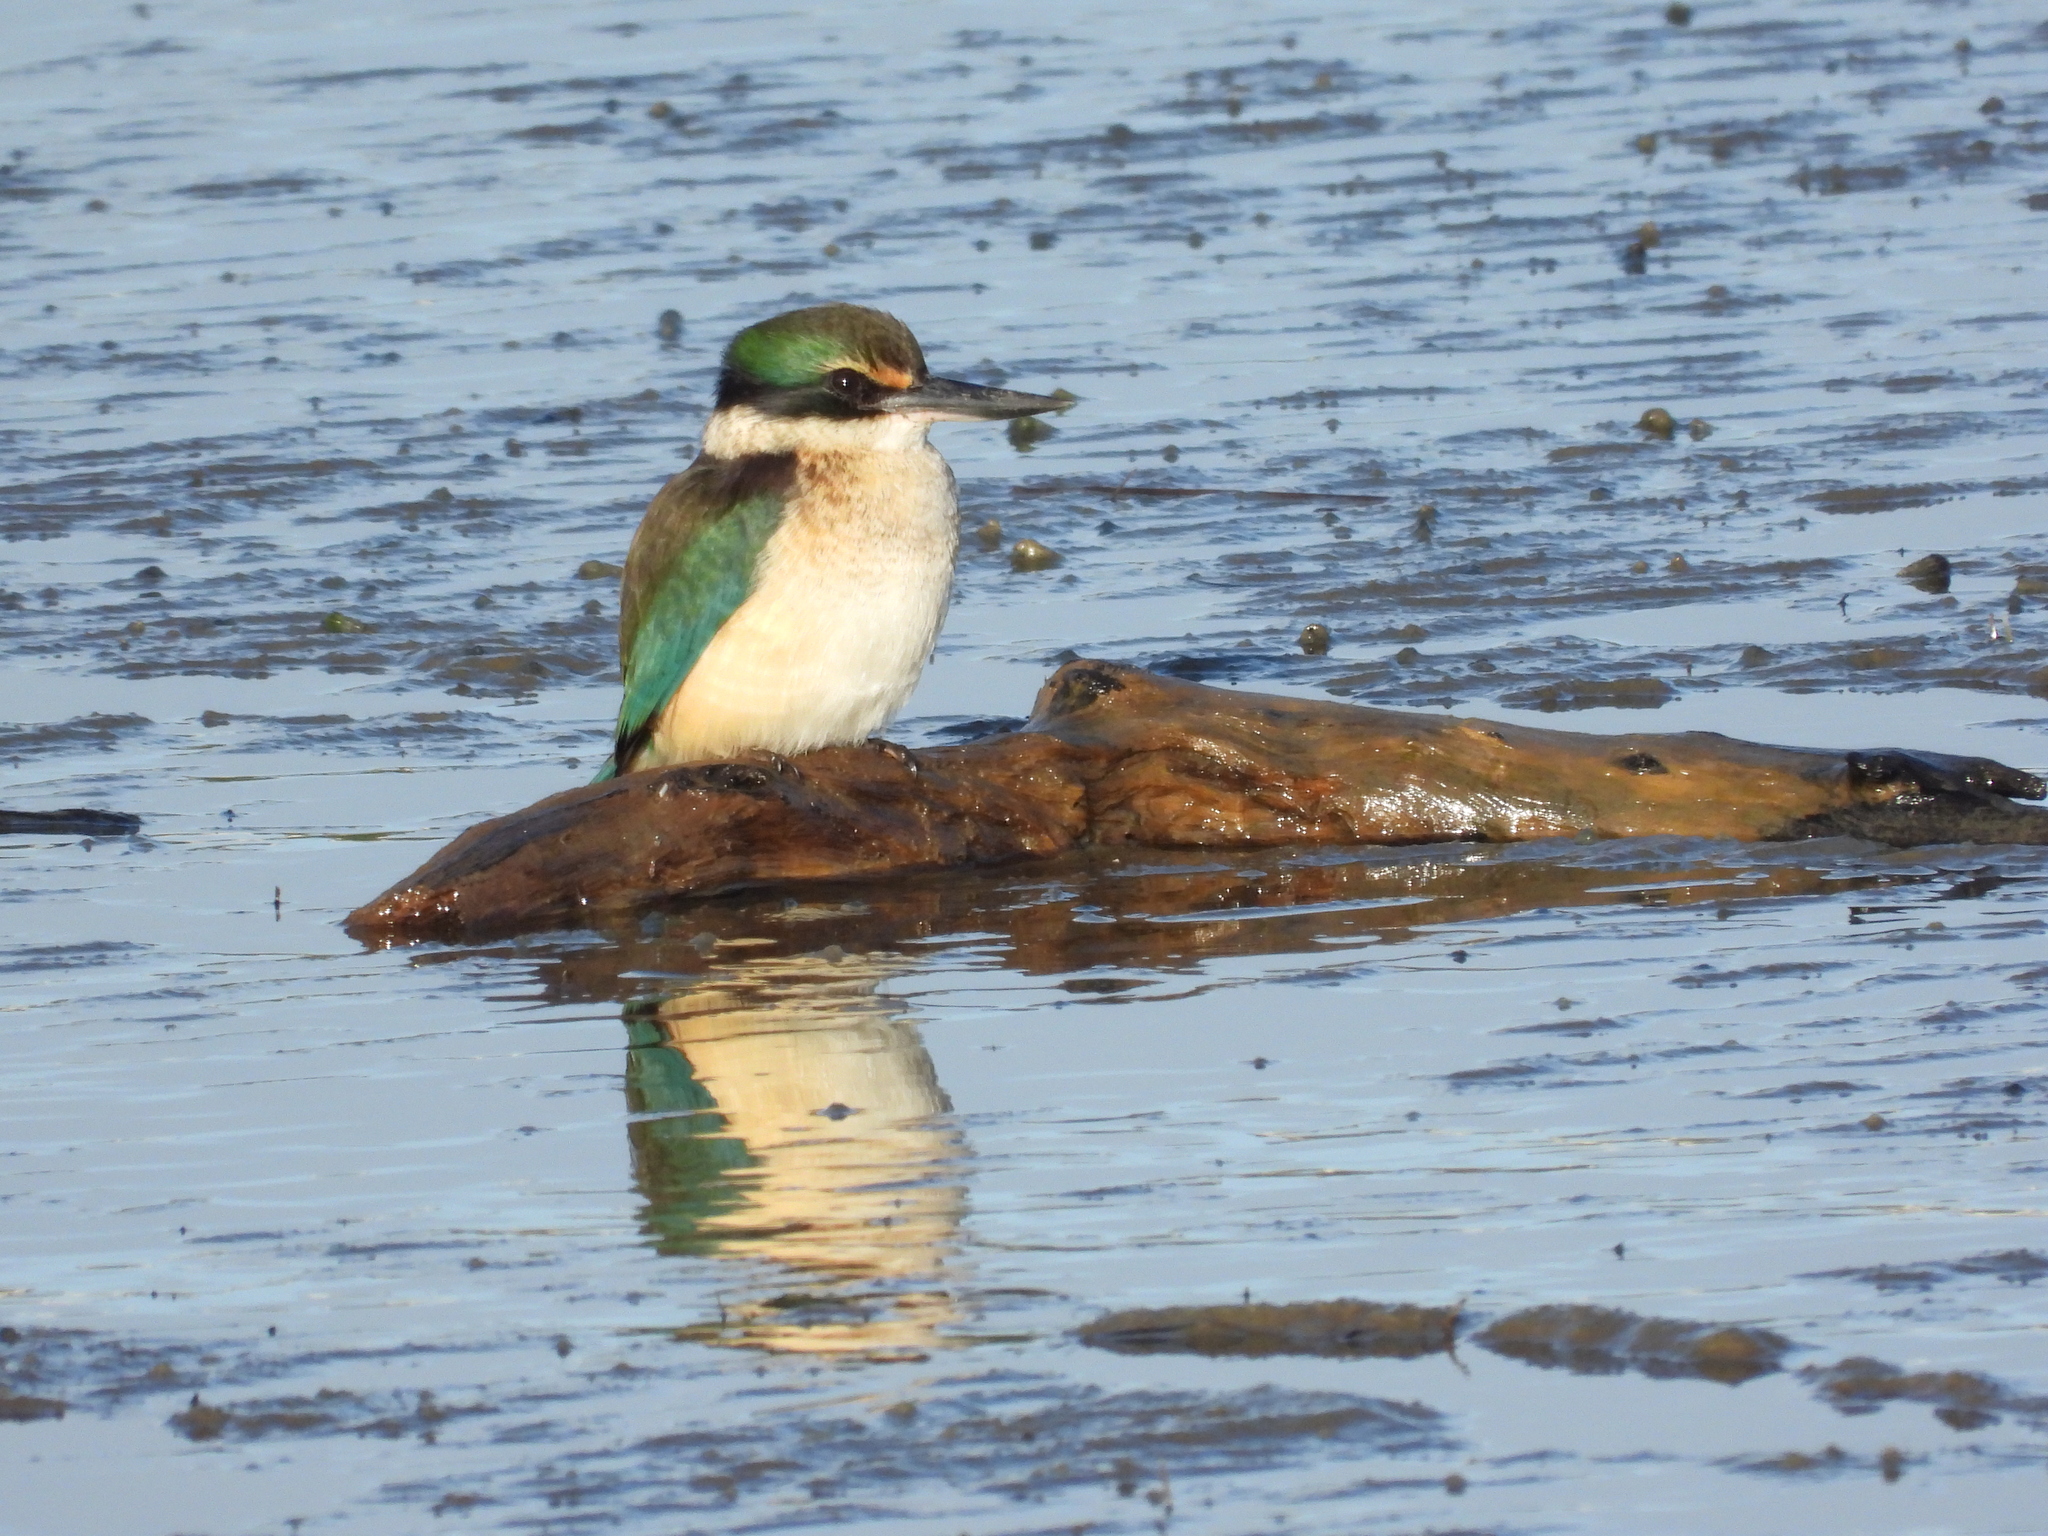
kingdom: Animalia
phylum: Chordata
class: Aves
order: Coraciiformes
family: Alcedinidae
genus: Todiramphus
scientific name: Todiramphus sanctus
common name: Sacred kingfisher
